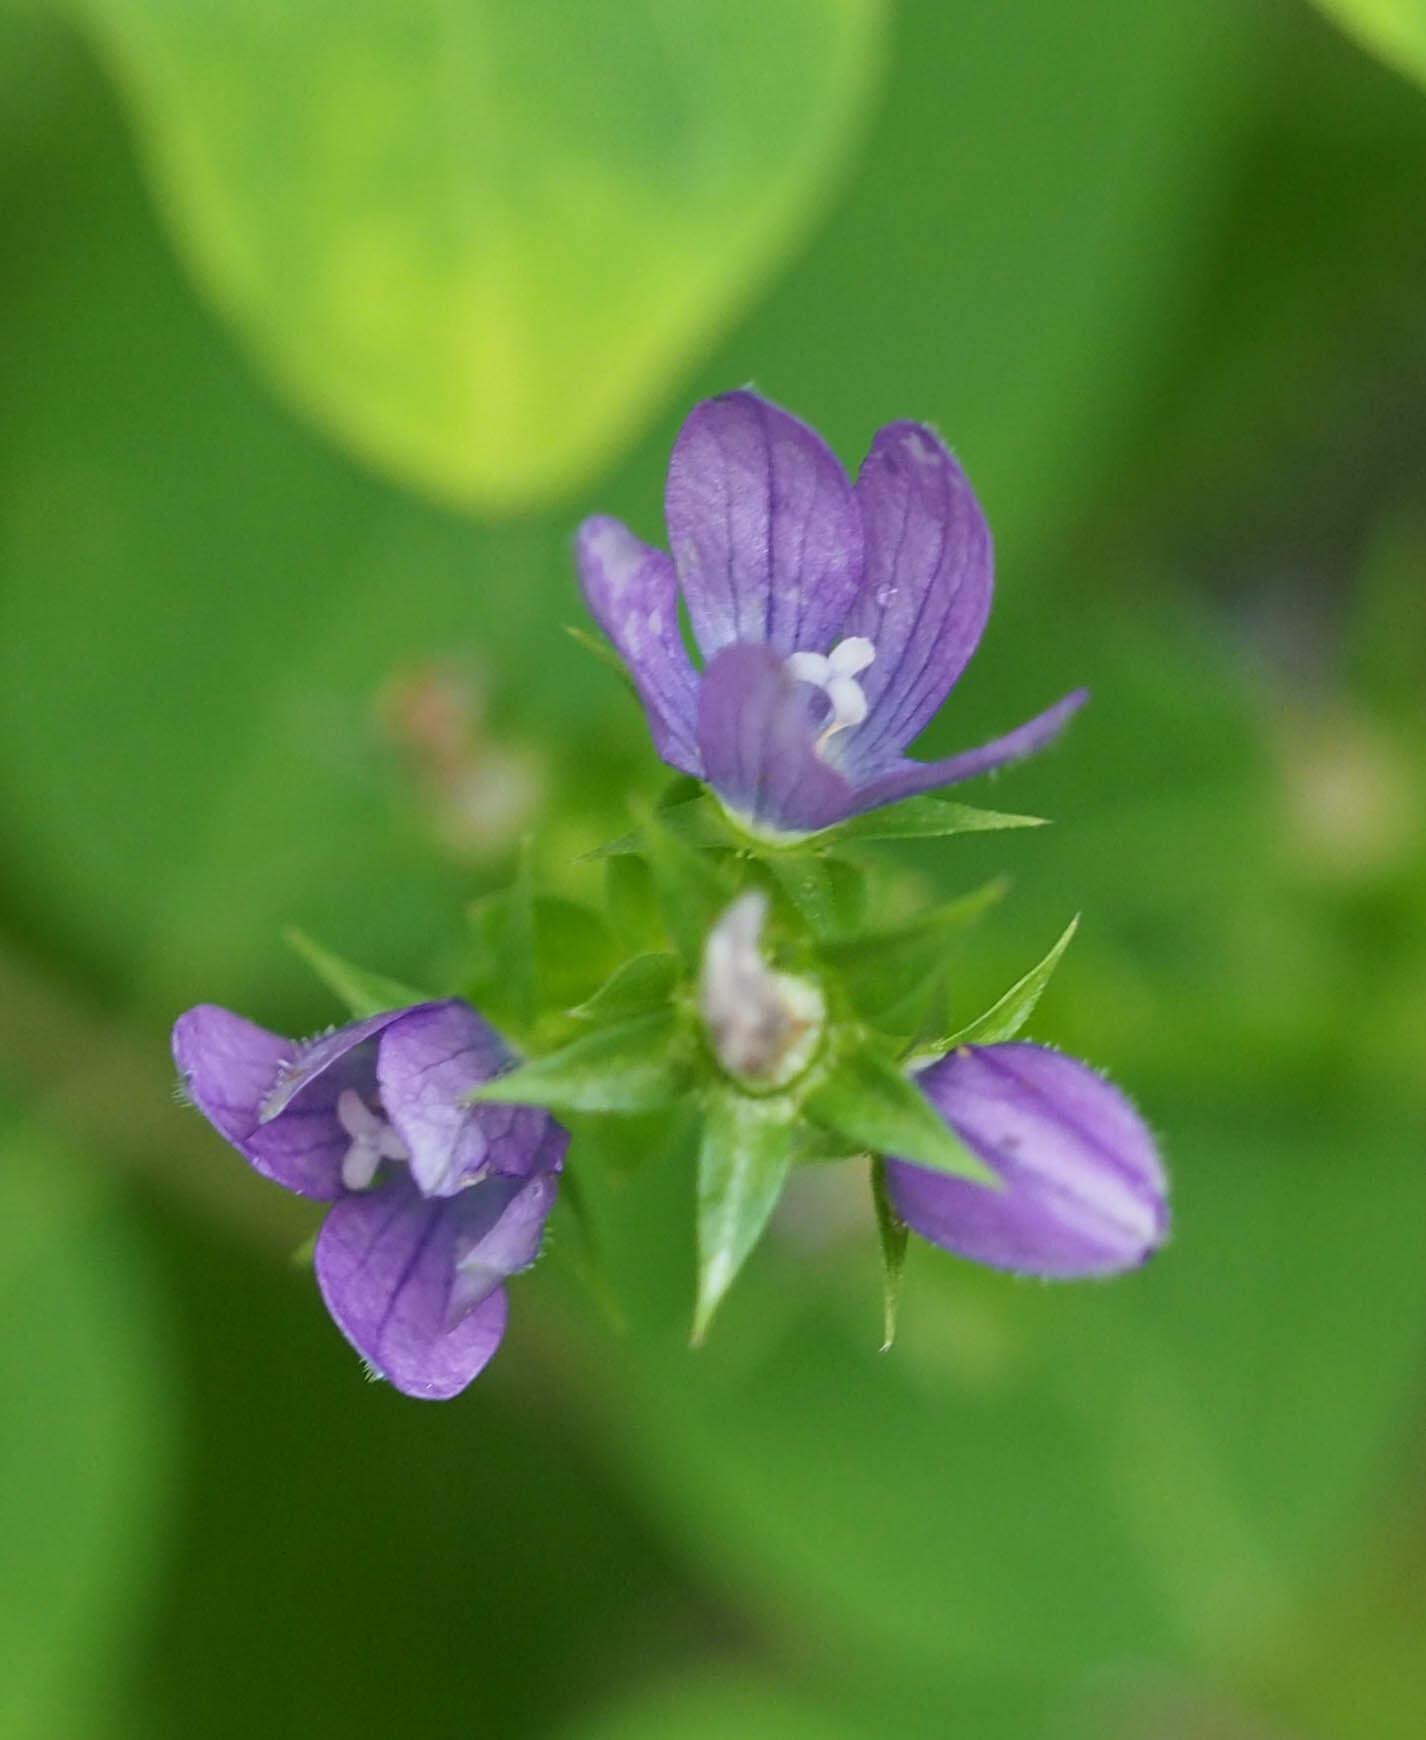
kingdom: Plantae
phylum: Tracheophyta
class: Magnoliopsida
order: Asterales
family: Campanulaceae
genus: Triodanis
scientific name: Triodanis perfoliata
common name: Clasping venus' looking-glass
